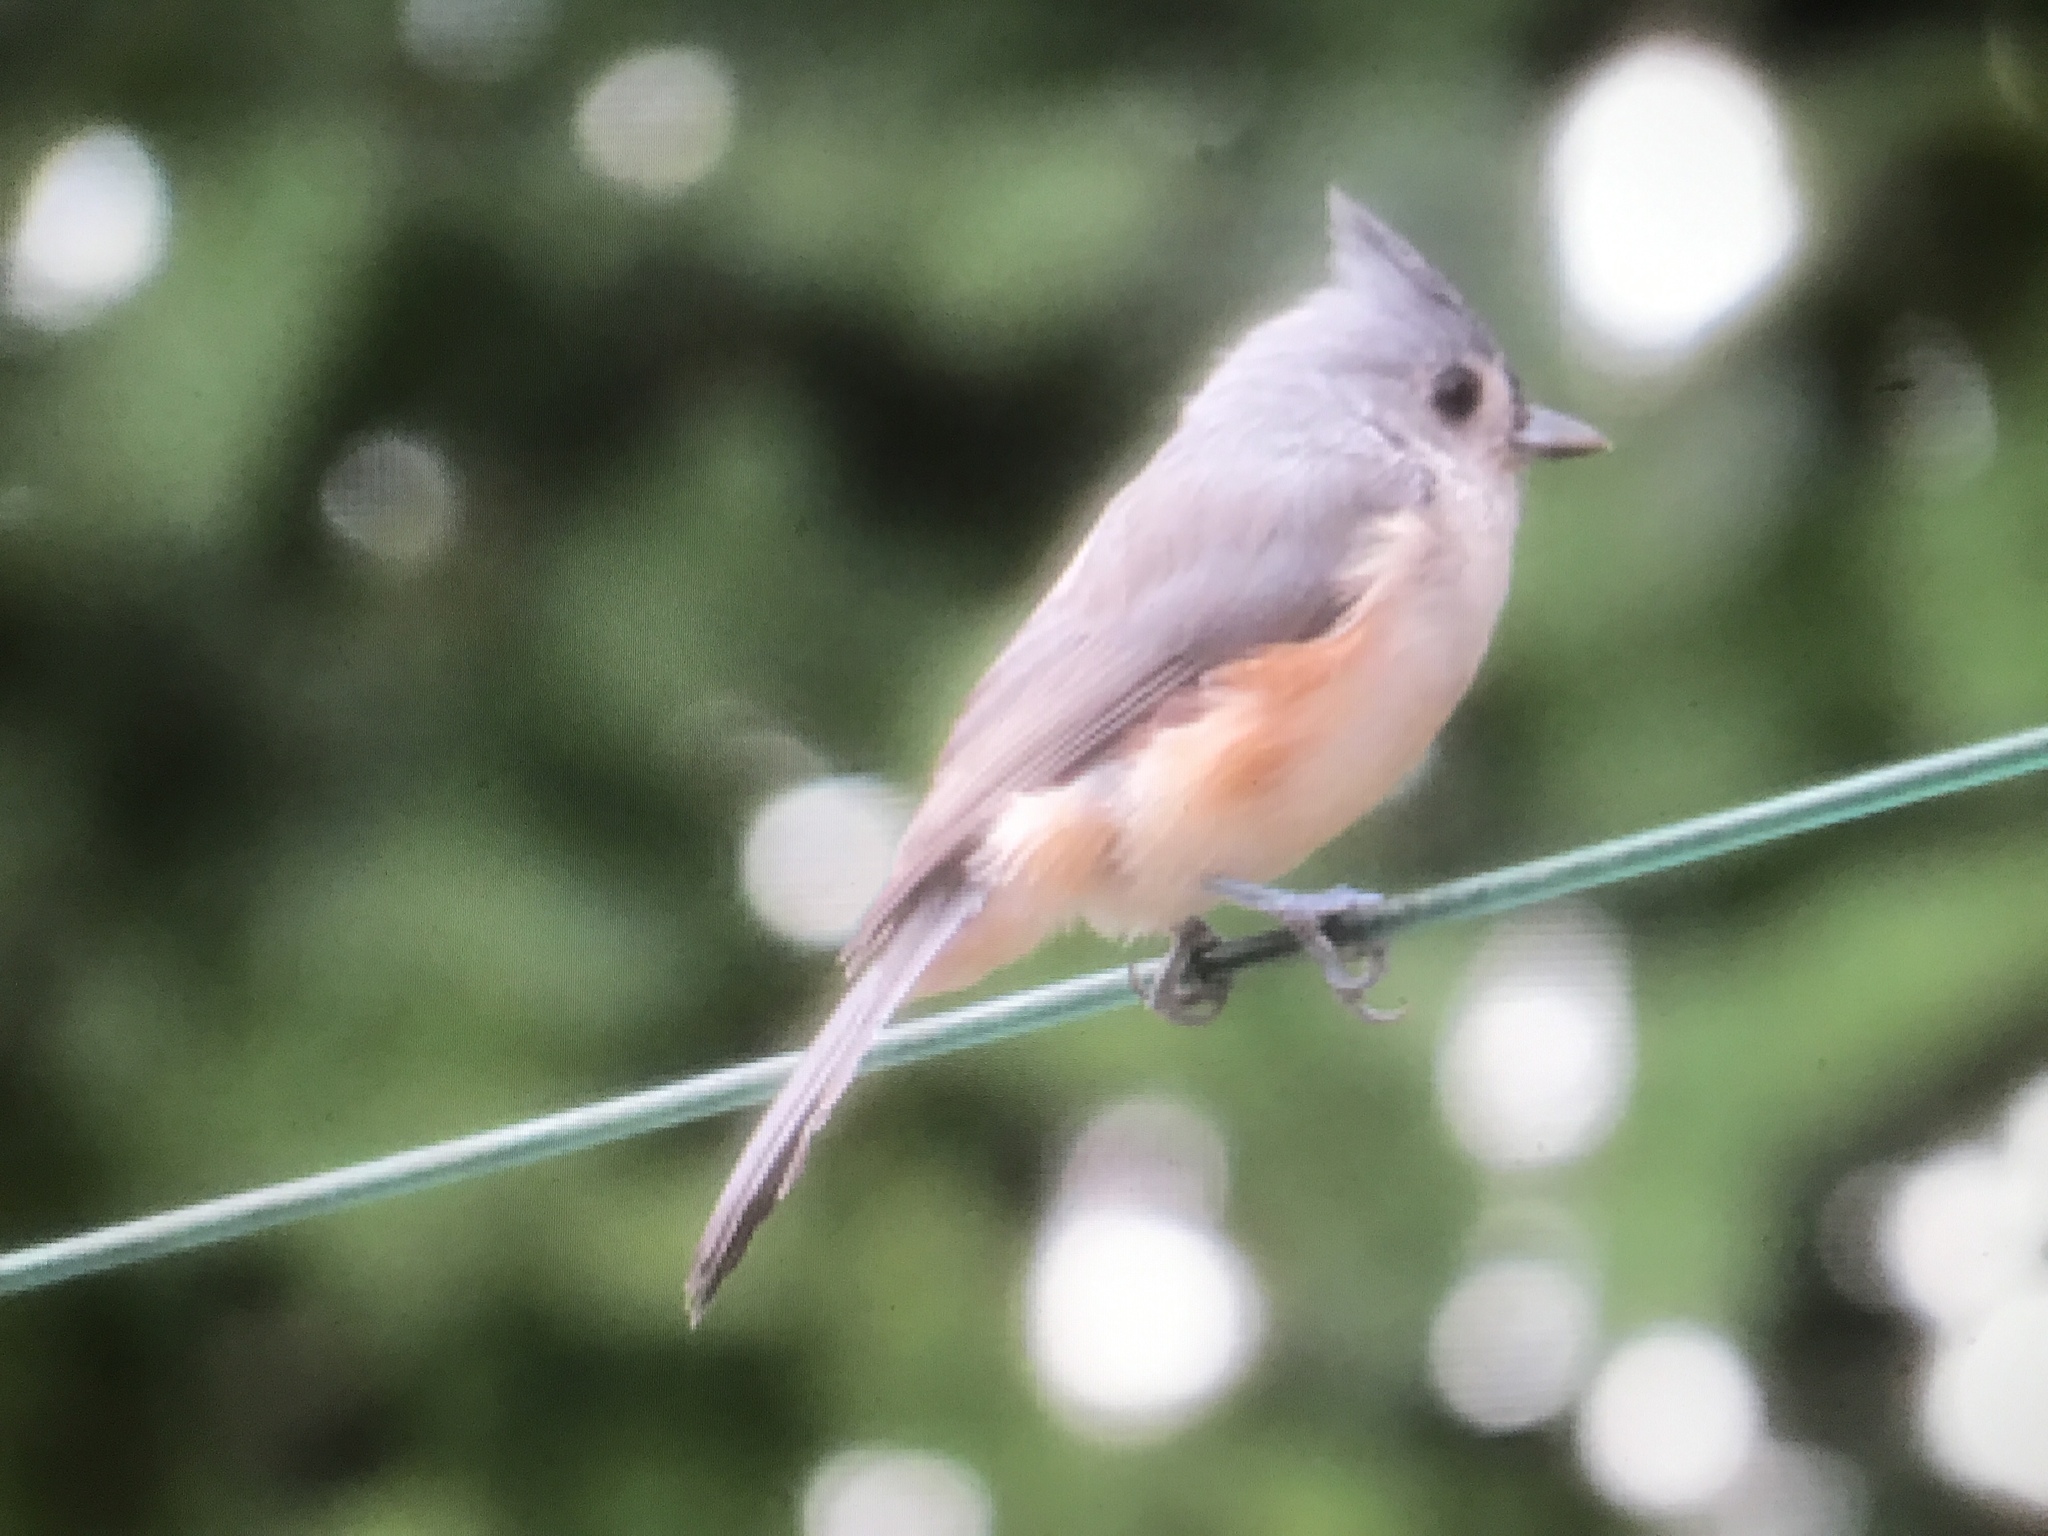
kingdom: Animalia
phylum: Chordata
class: Aves
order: Passeriformes
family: Paridae
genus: Baeolophus
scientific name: Baeolophus bicolor
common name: Tufted titmouse
